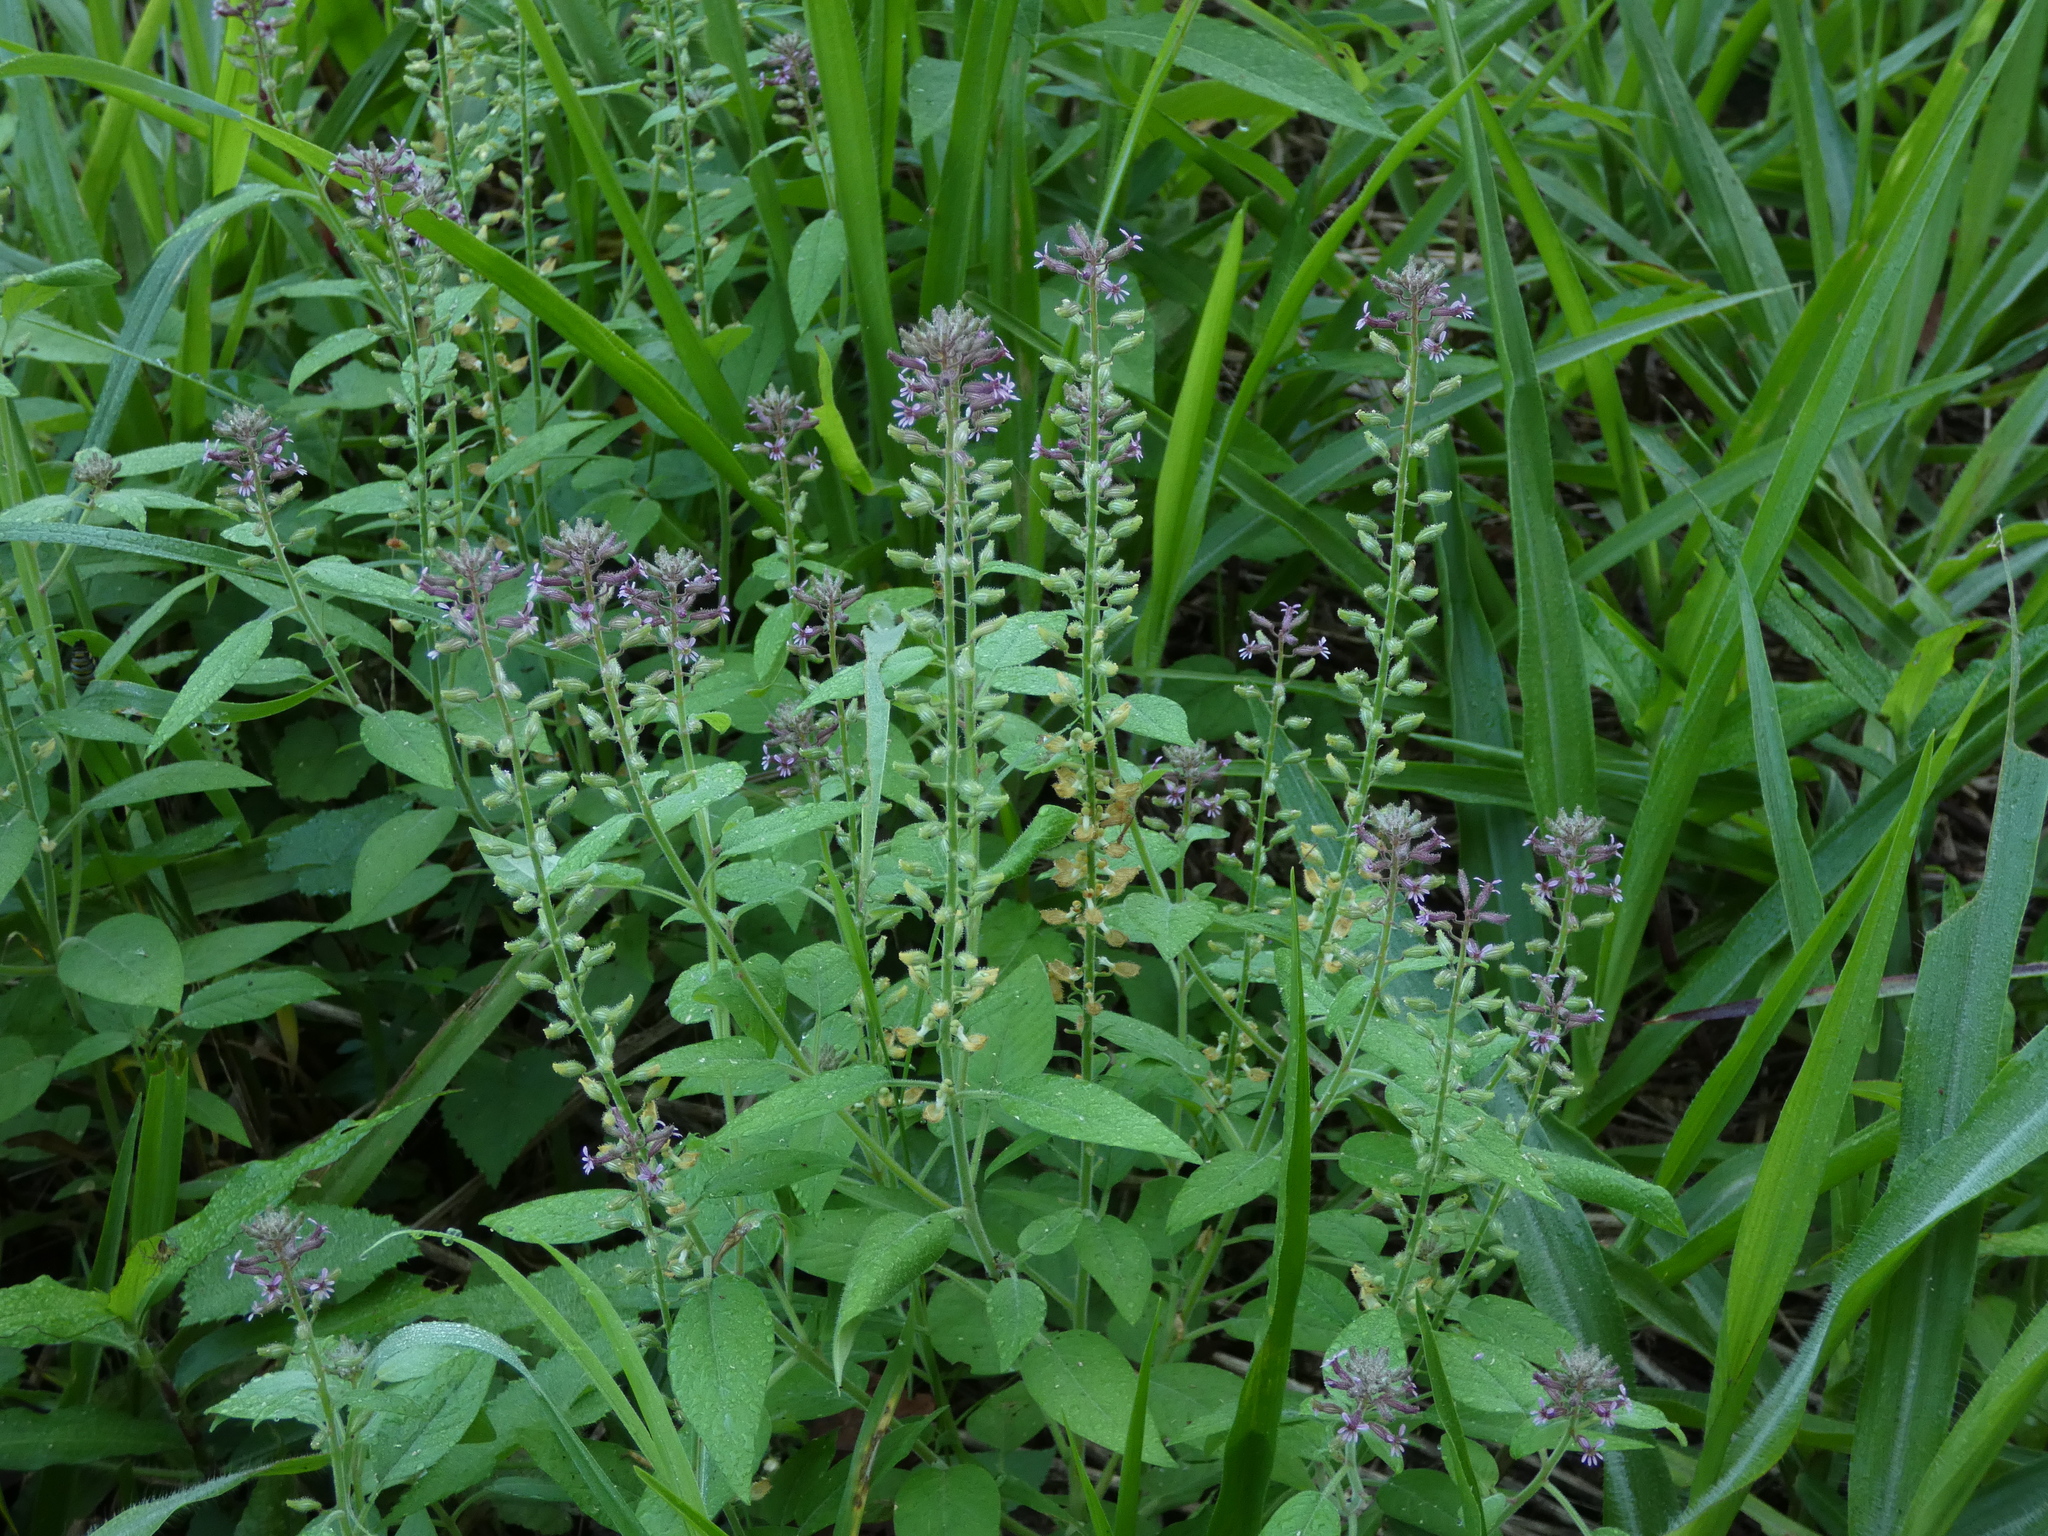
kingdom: Plantae
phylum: Tracheophyta
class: Magnoliopsida
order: Myrtales
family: Lythraceae
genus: Cuphea
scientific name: Cuphea circaeoides
